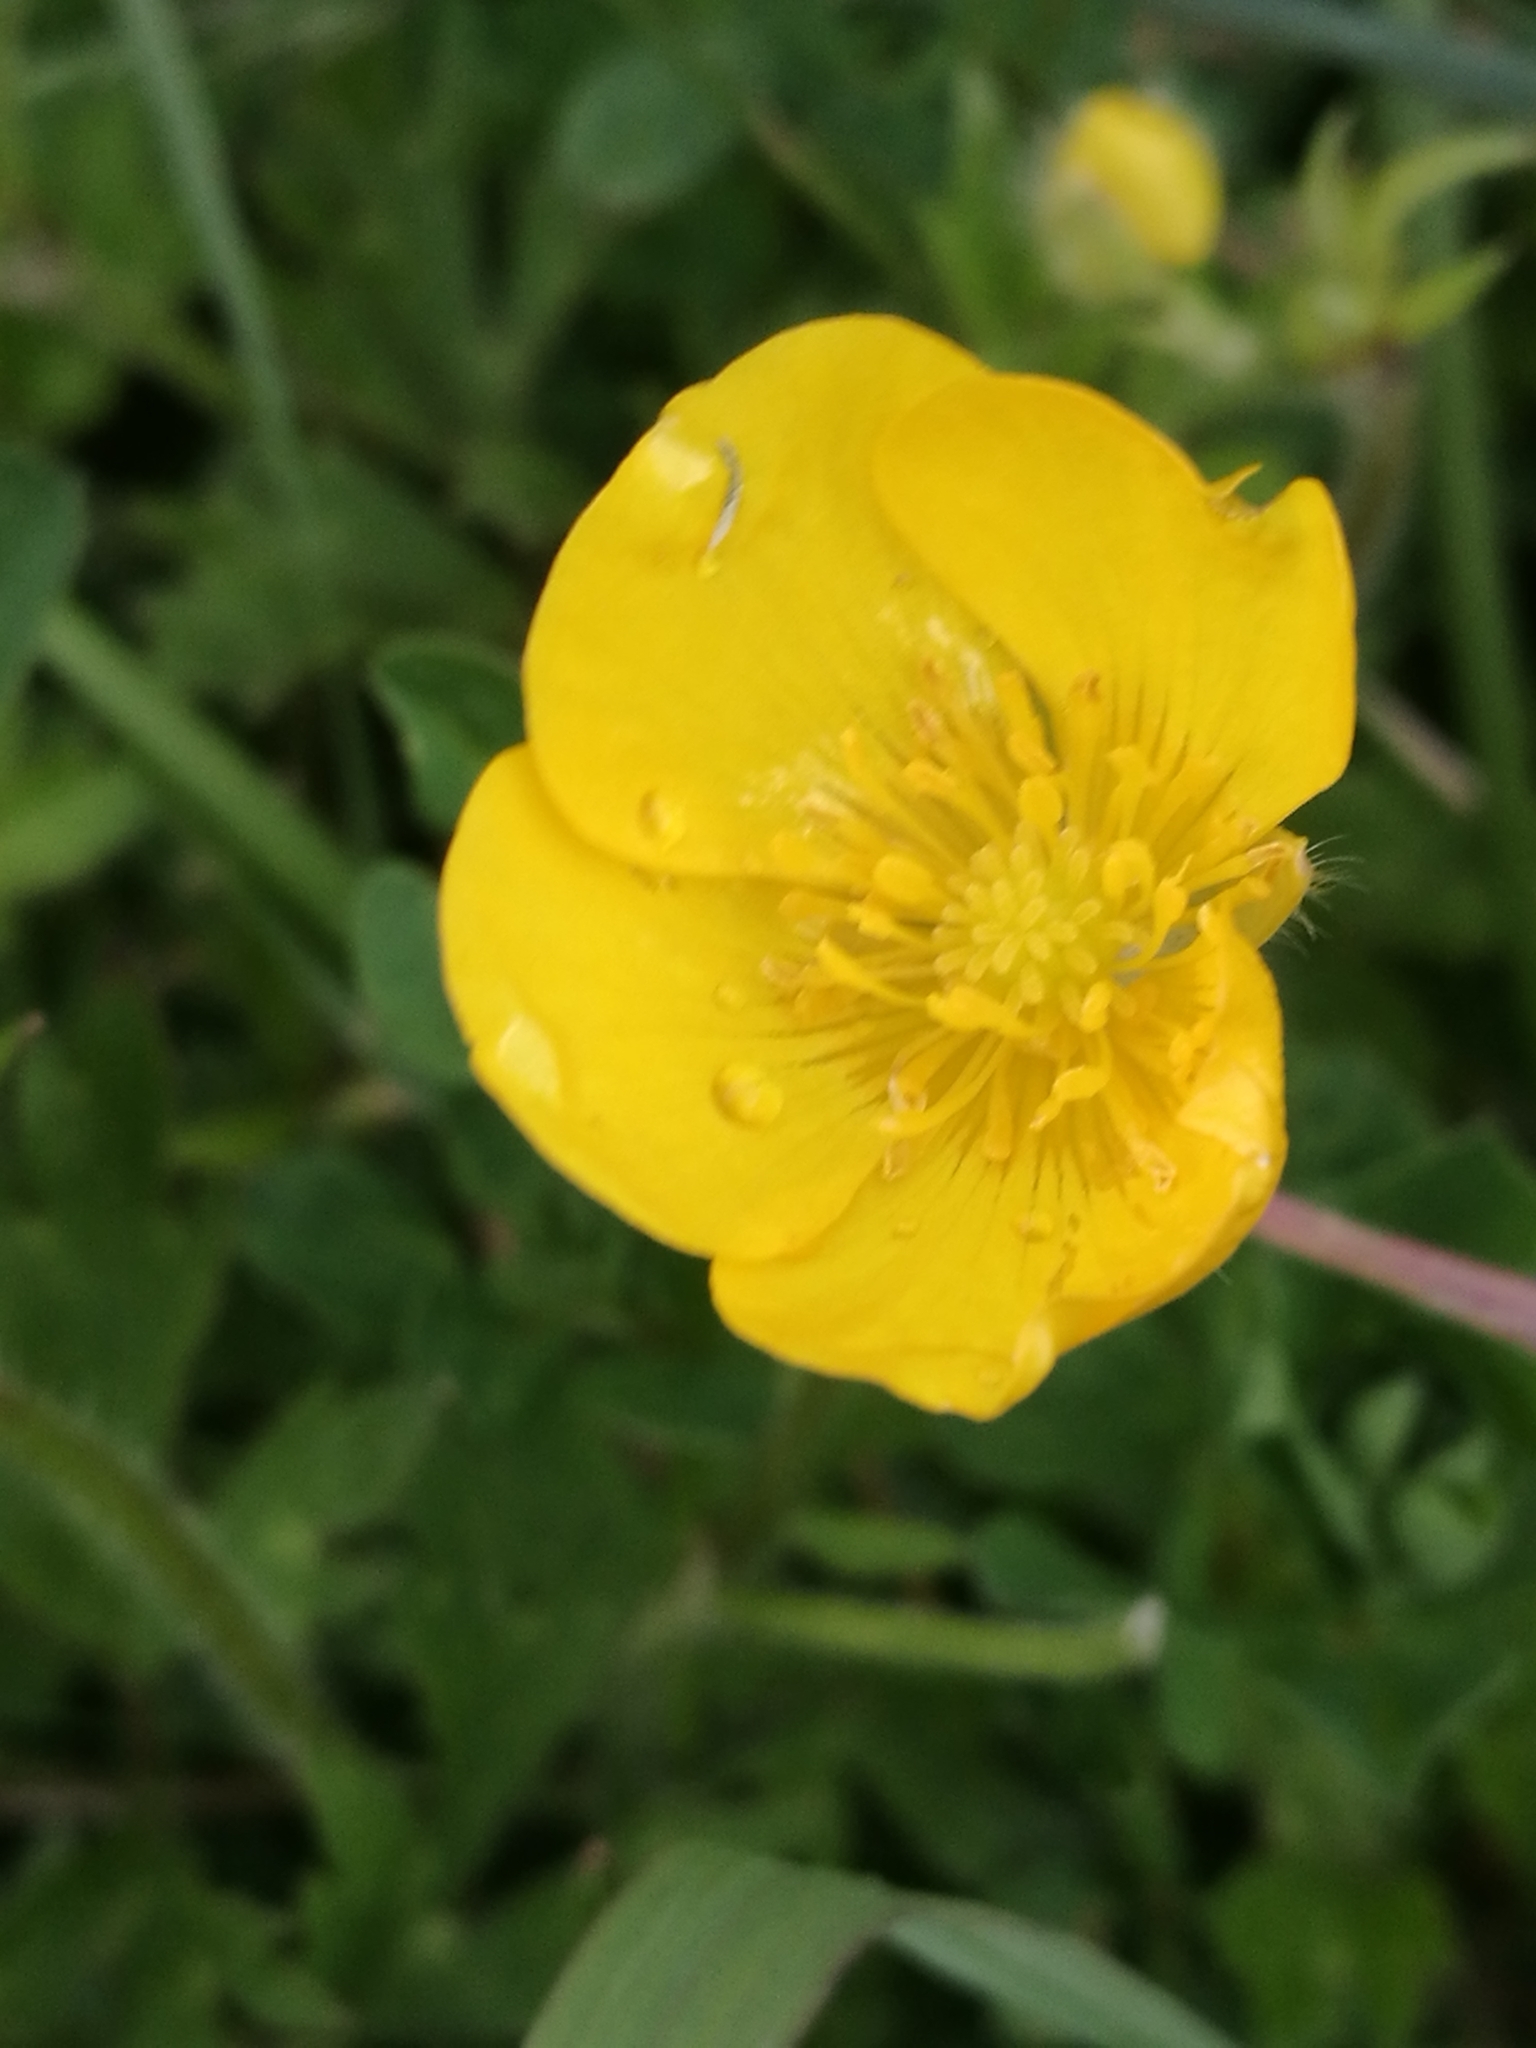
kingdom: Plantae
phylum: Tracheophyta
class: Magnoliopsida
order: Ranunculales
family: Ranunculaceae
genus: Ranunculus
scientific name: Ranunculus repens
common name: Creeping buttercup
